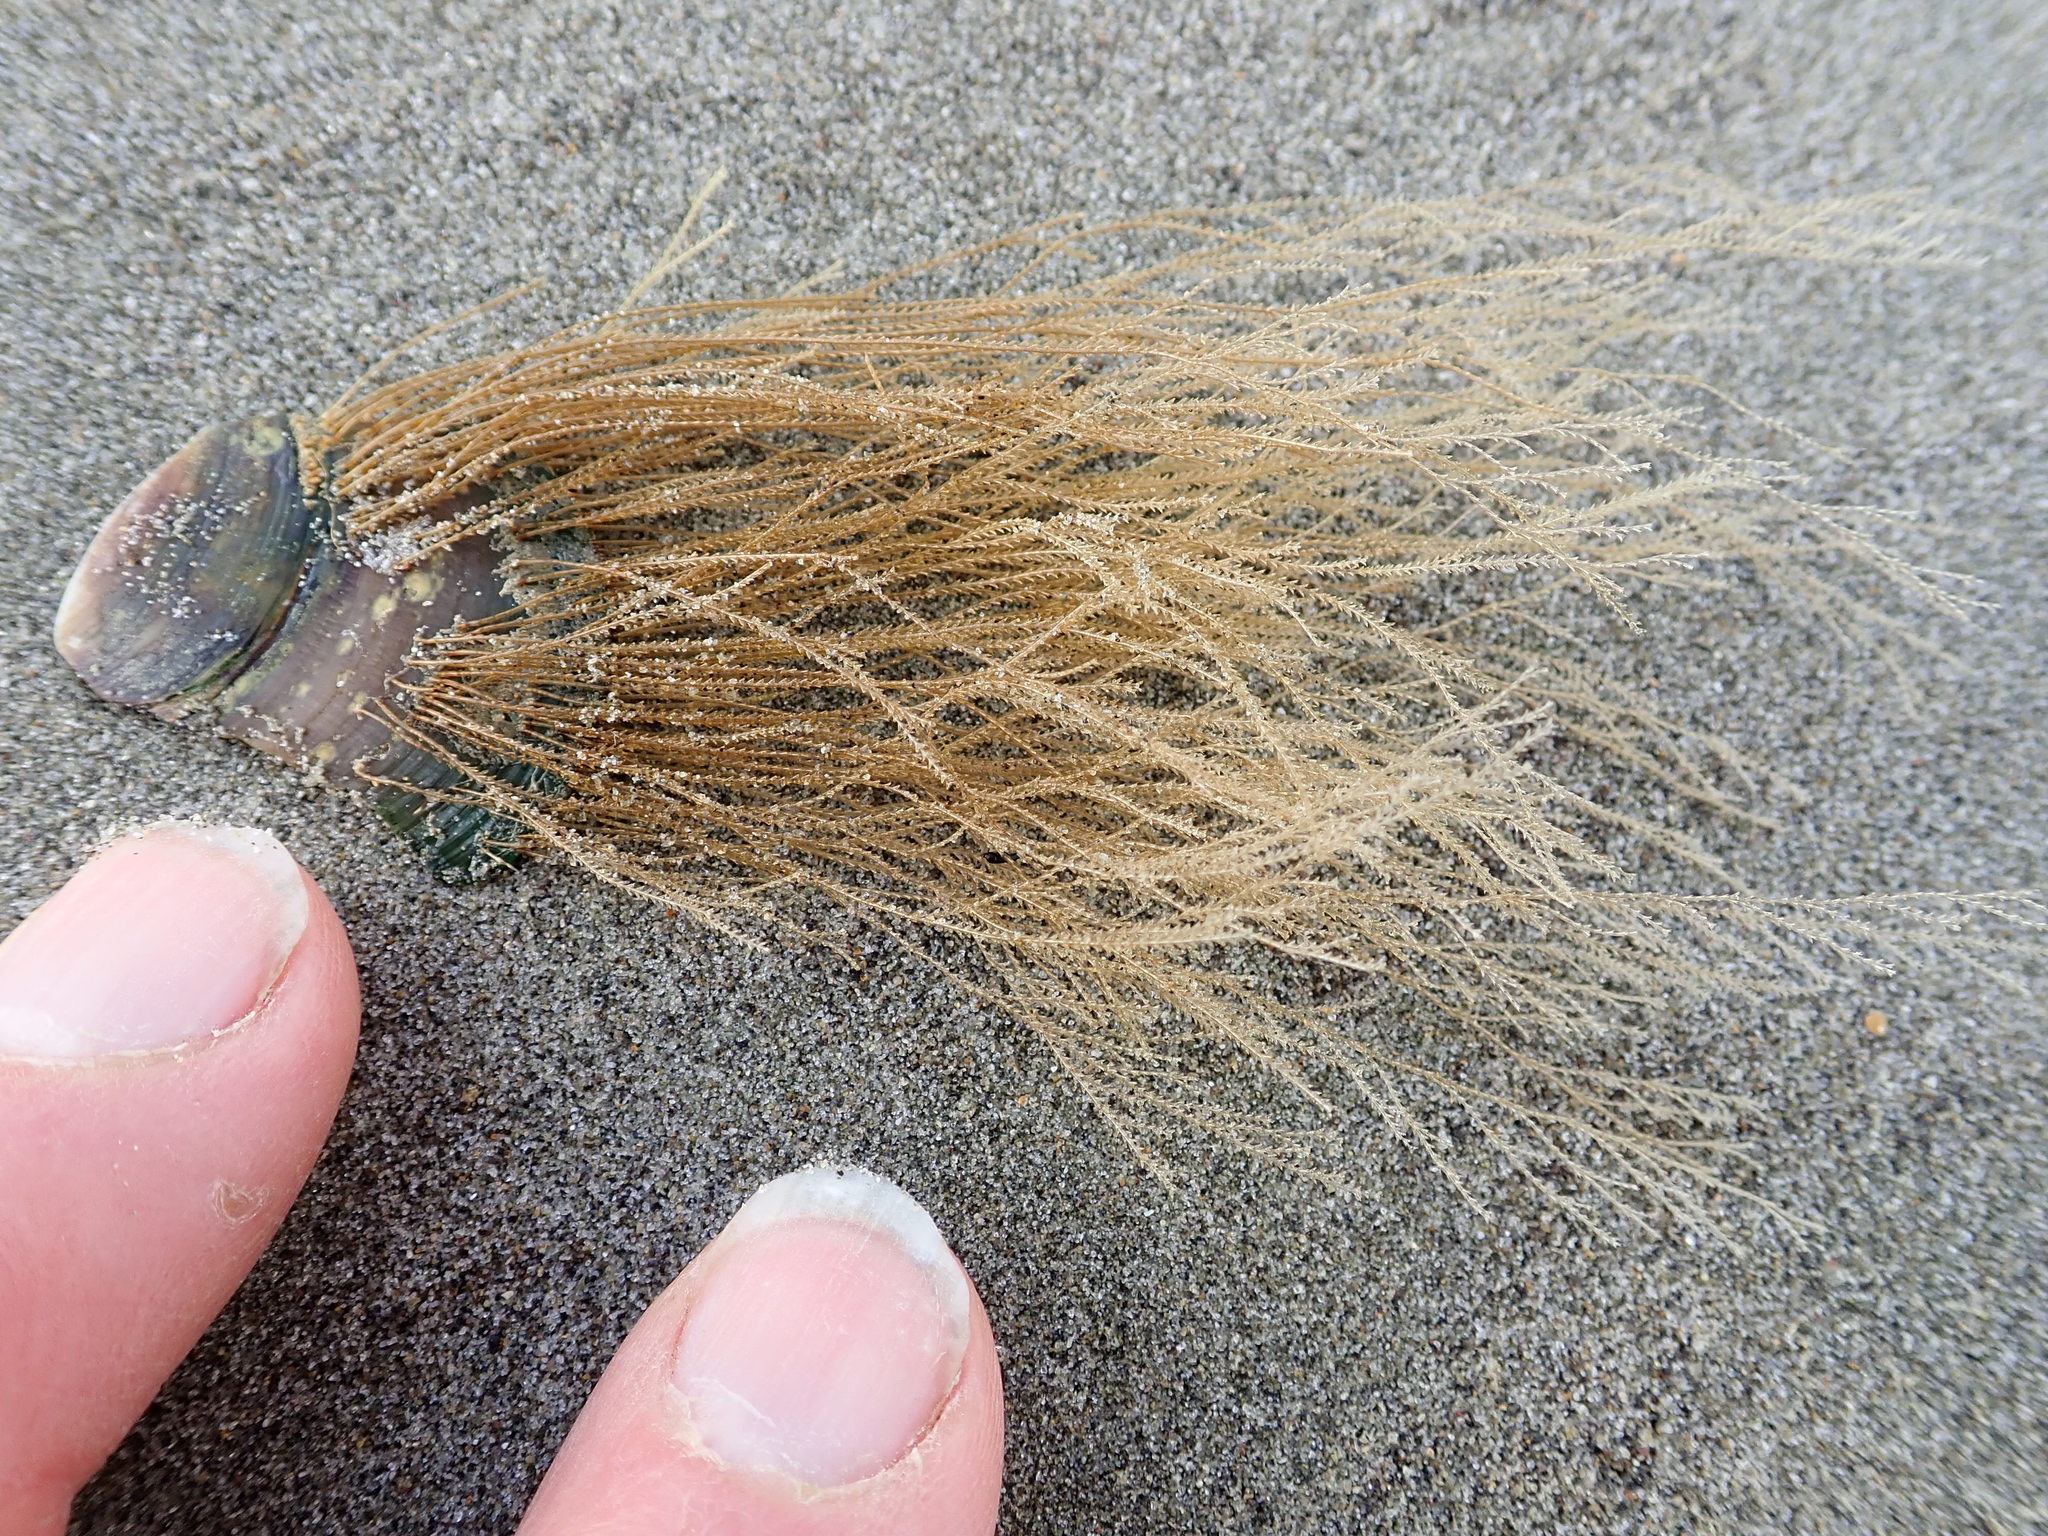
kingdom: Animalia
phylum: Cnidaria
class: Hydrozoa
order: Leptothecata
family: Sertulariidae
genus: Amphisbetia
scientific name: Amphisbetia bispinosa
